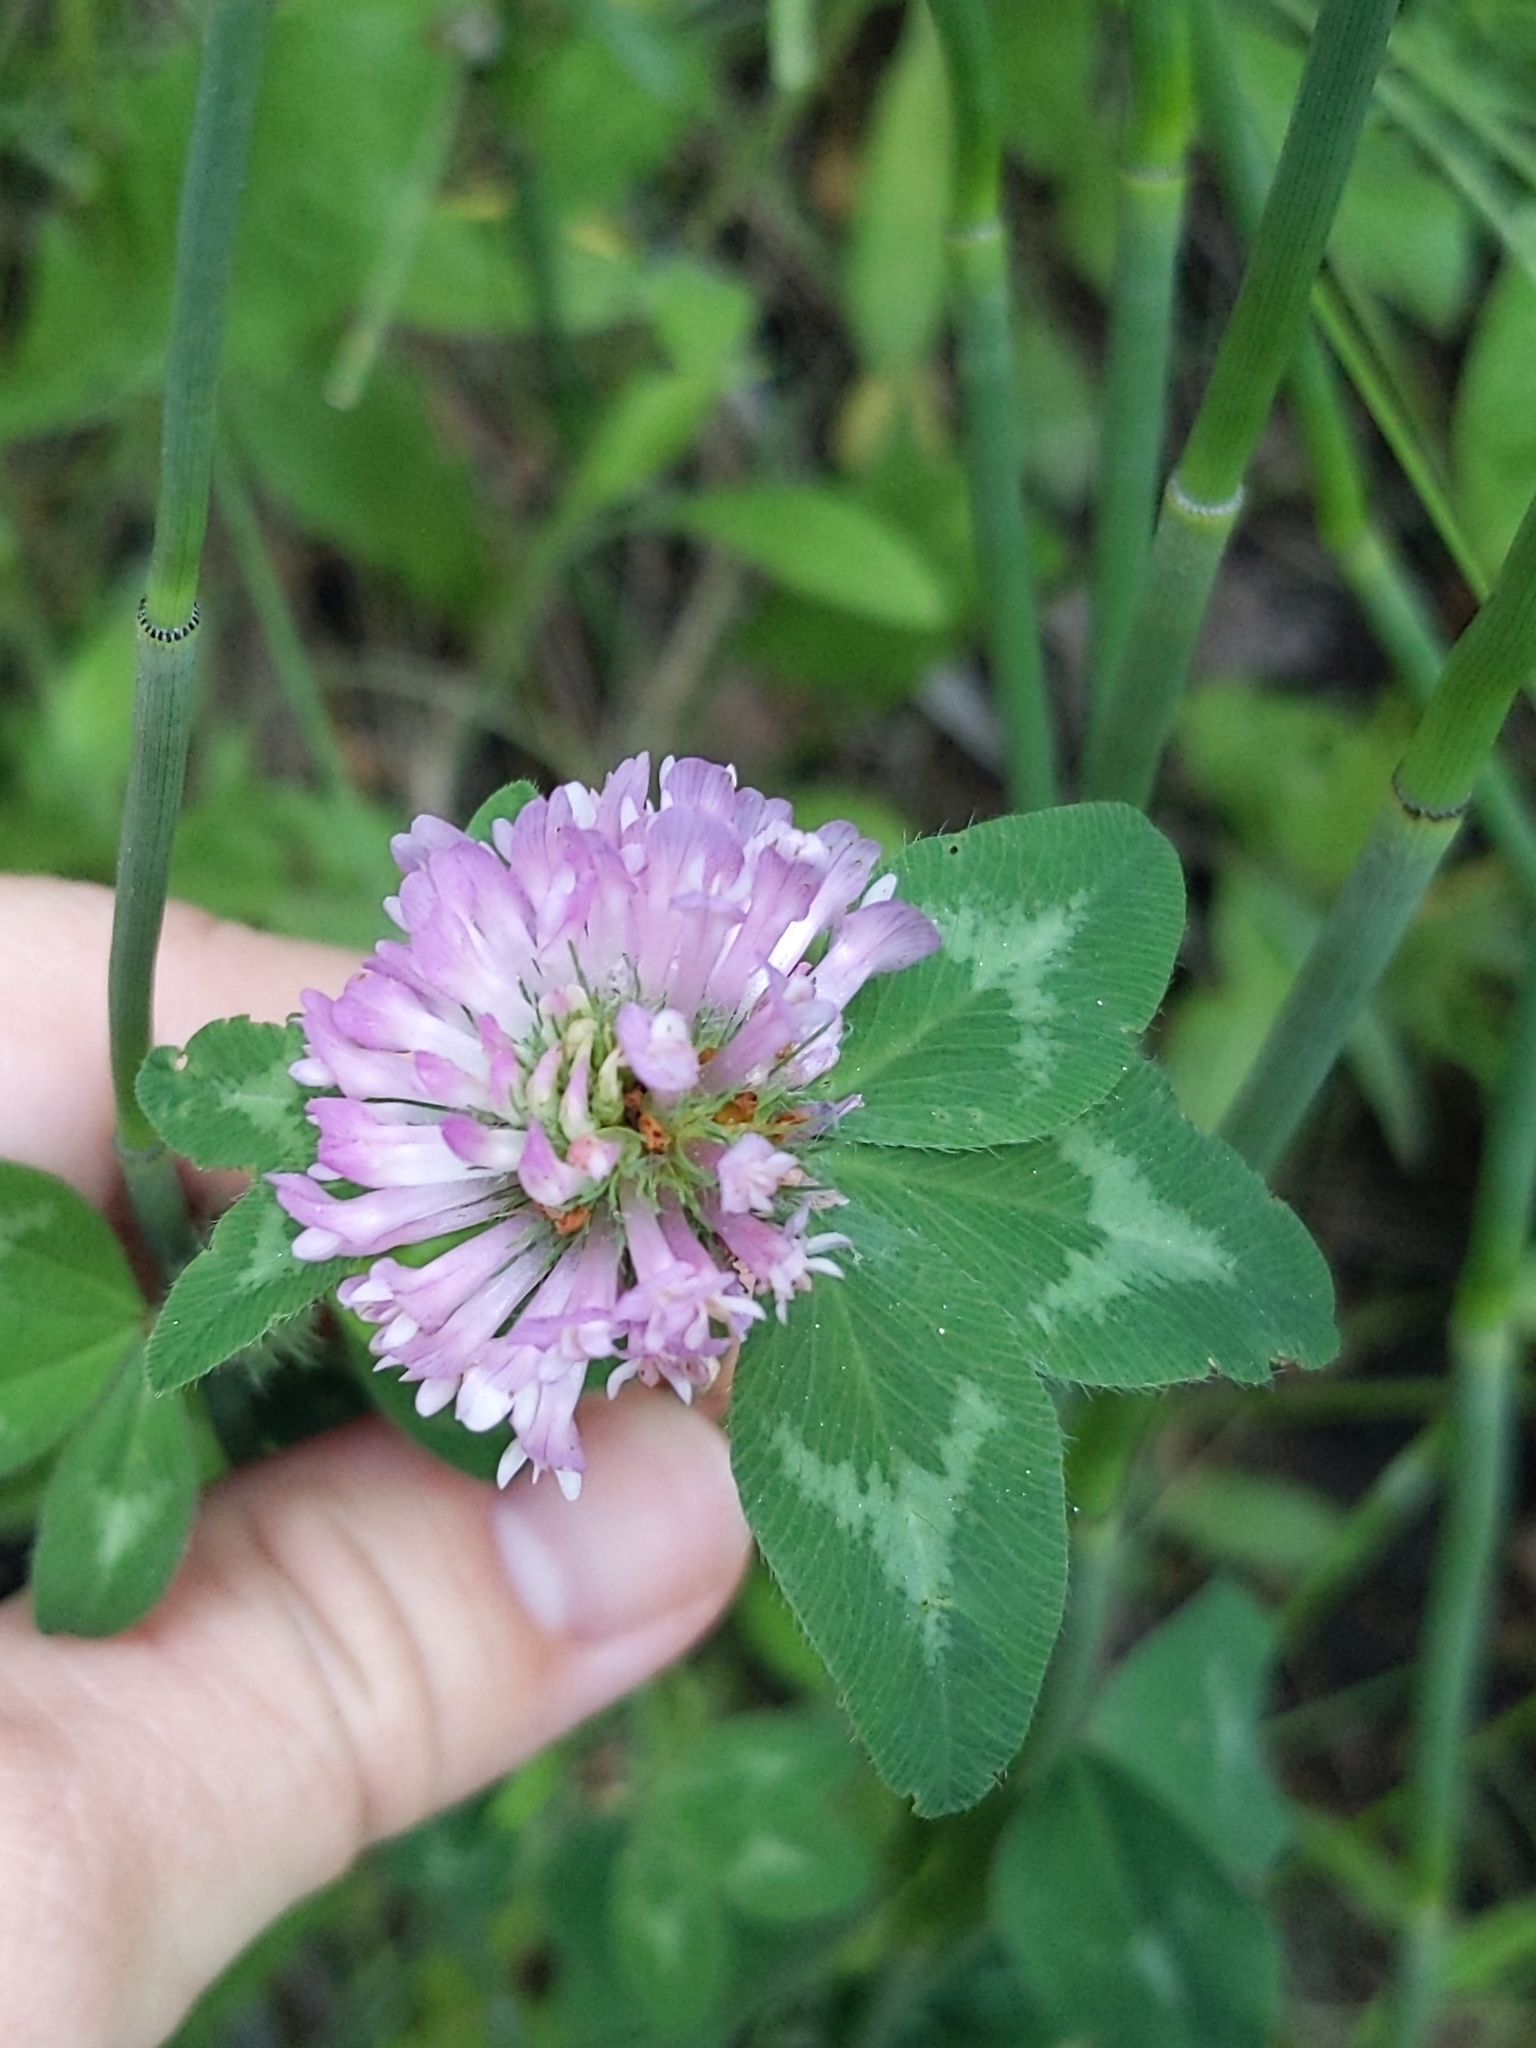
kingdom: Plantae
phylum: Tracheophyta
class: Magnoliopsida
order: Fabales
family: Fabaceae
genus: Trifolium
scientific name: Trifolium pratense
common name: Red clover
